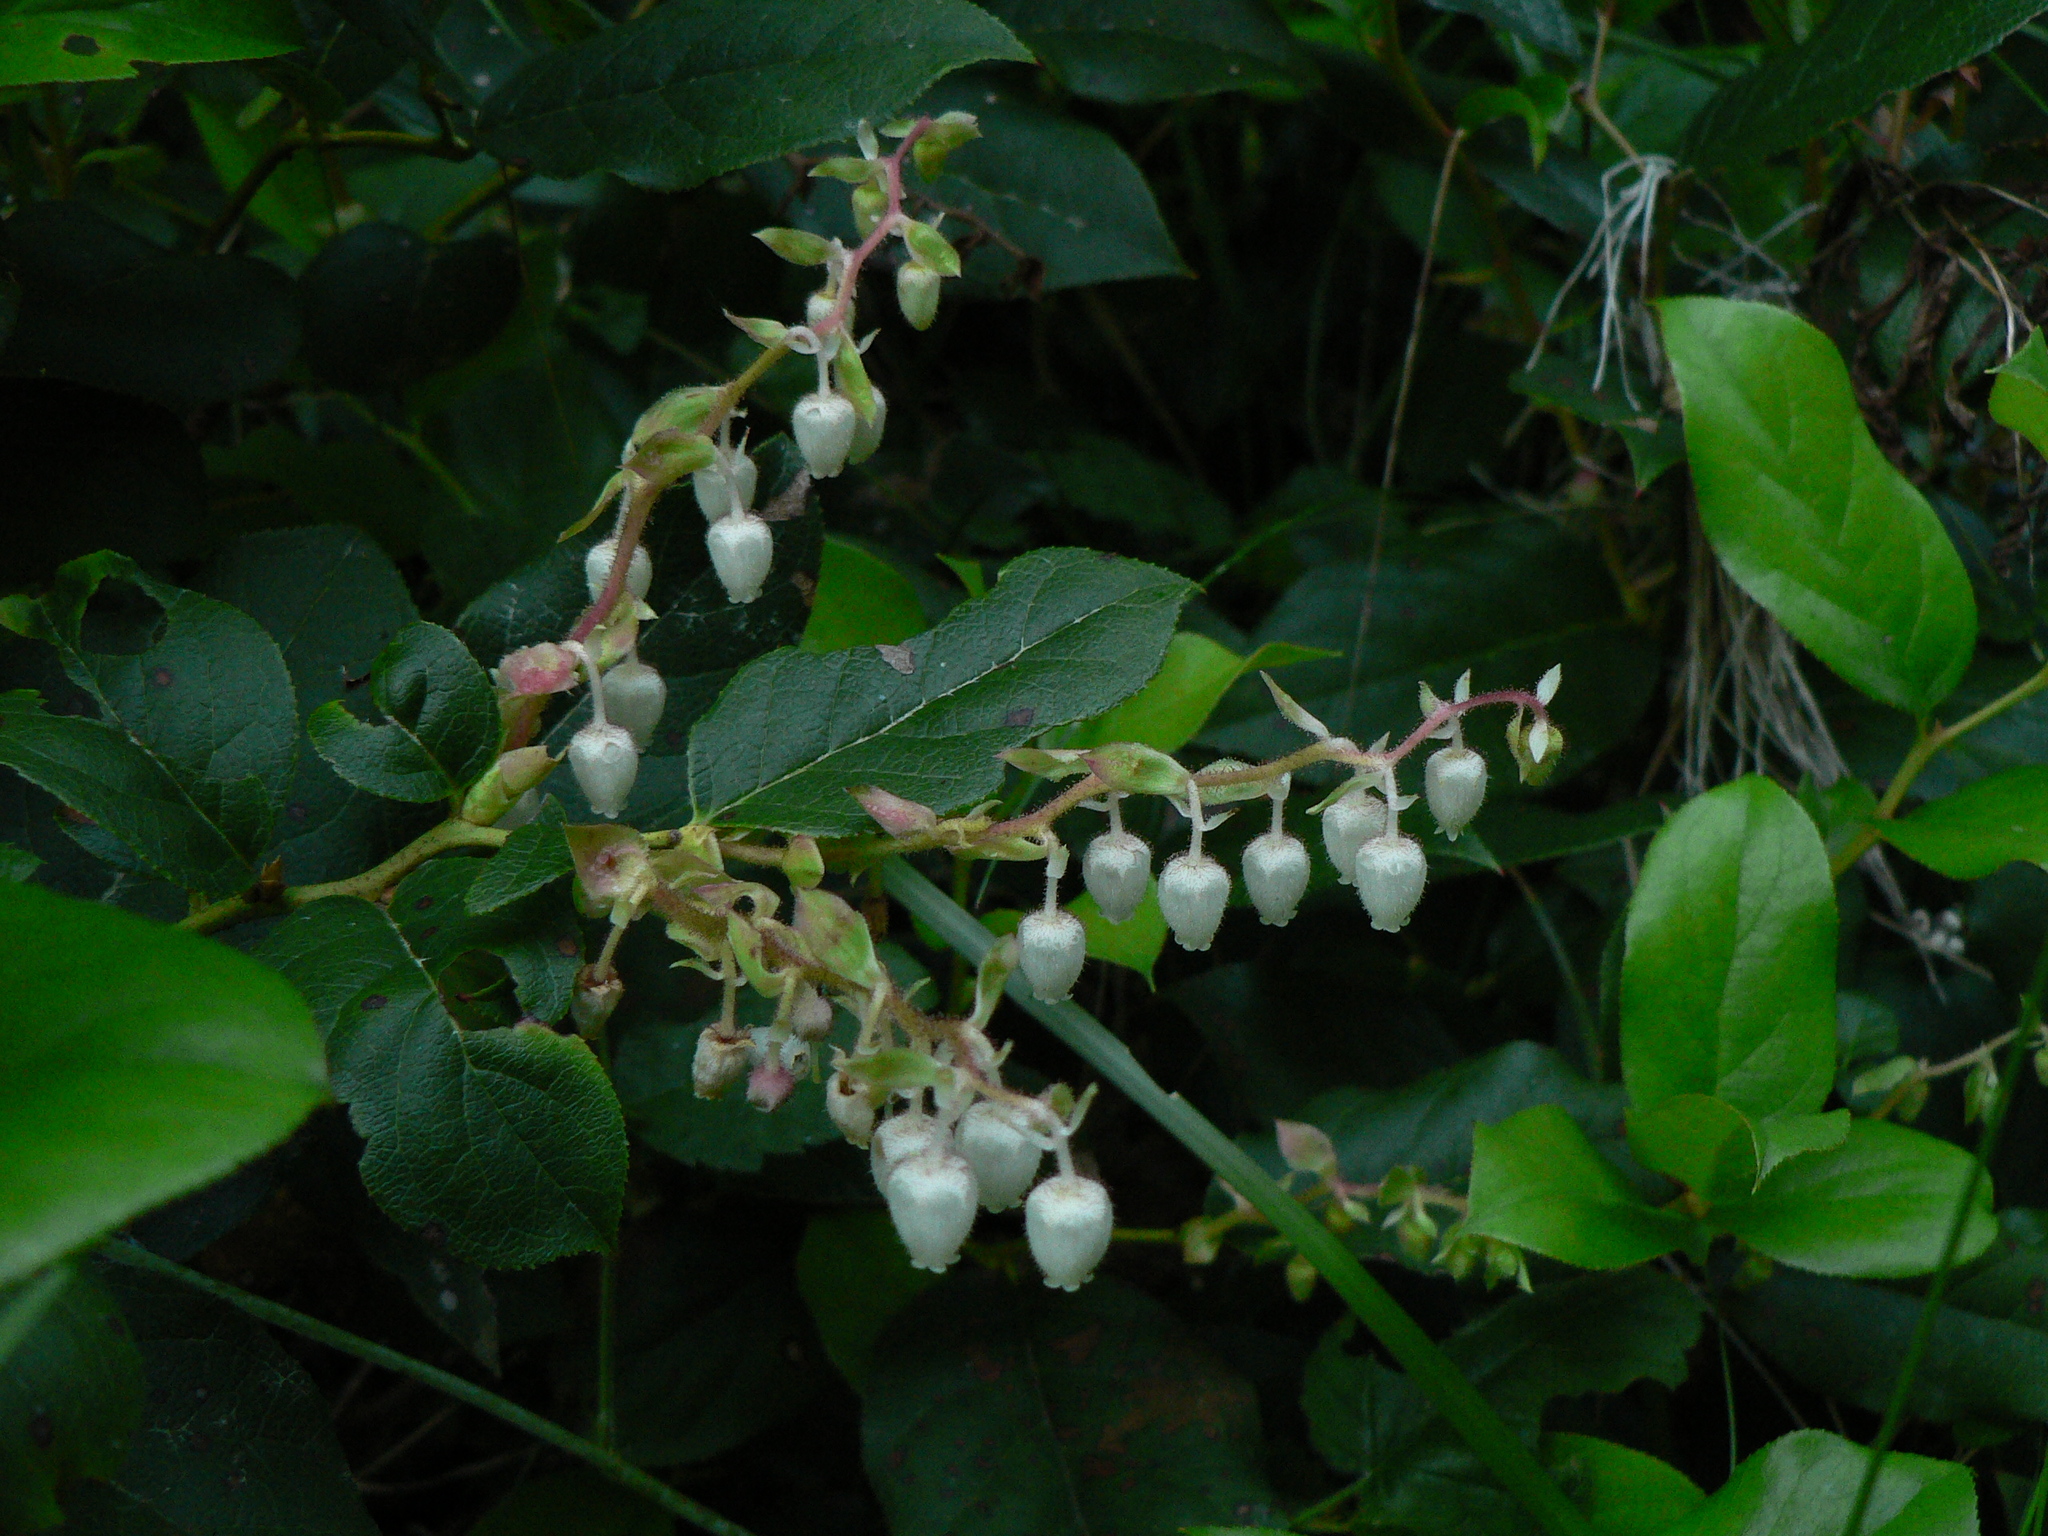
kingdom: Plantae
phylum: Tracheophyta
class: Magnoliopsida
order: Ericales
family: Ericaceae
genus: Gaultheria
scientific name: Gaultheria shallon
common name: Shallon
